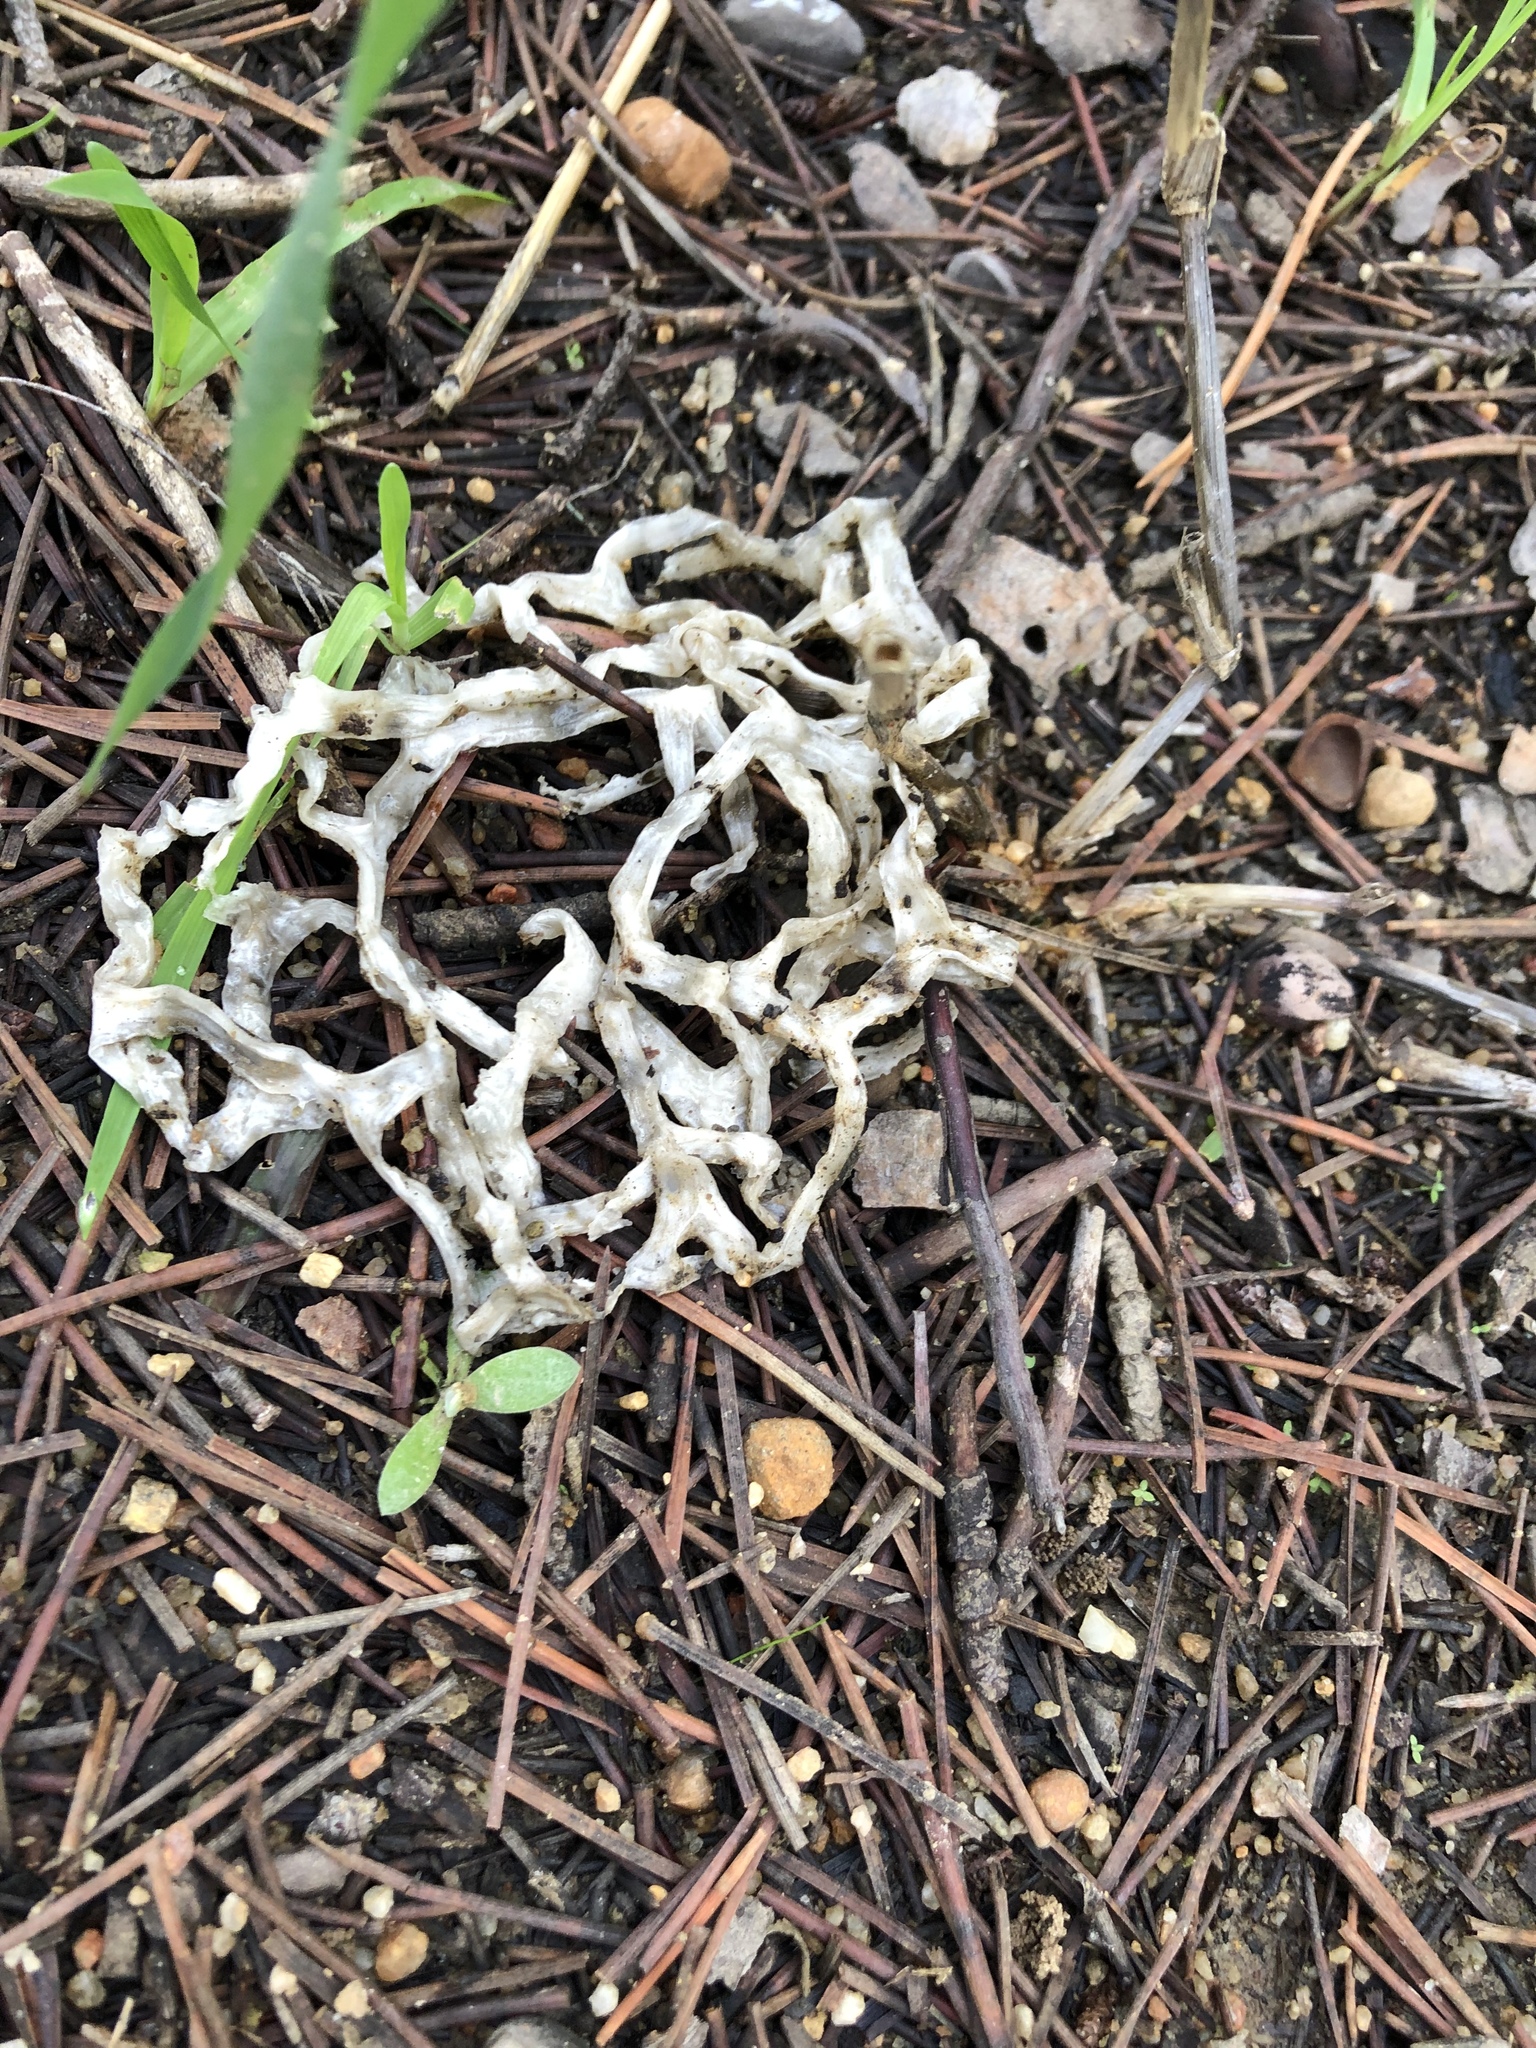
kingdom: Fungi
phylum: Basidiomycota
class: Agaricomycetes
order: Phallales
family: Phallaceae
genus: Ileodictyon
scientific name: Ileodictyon gracile
